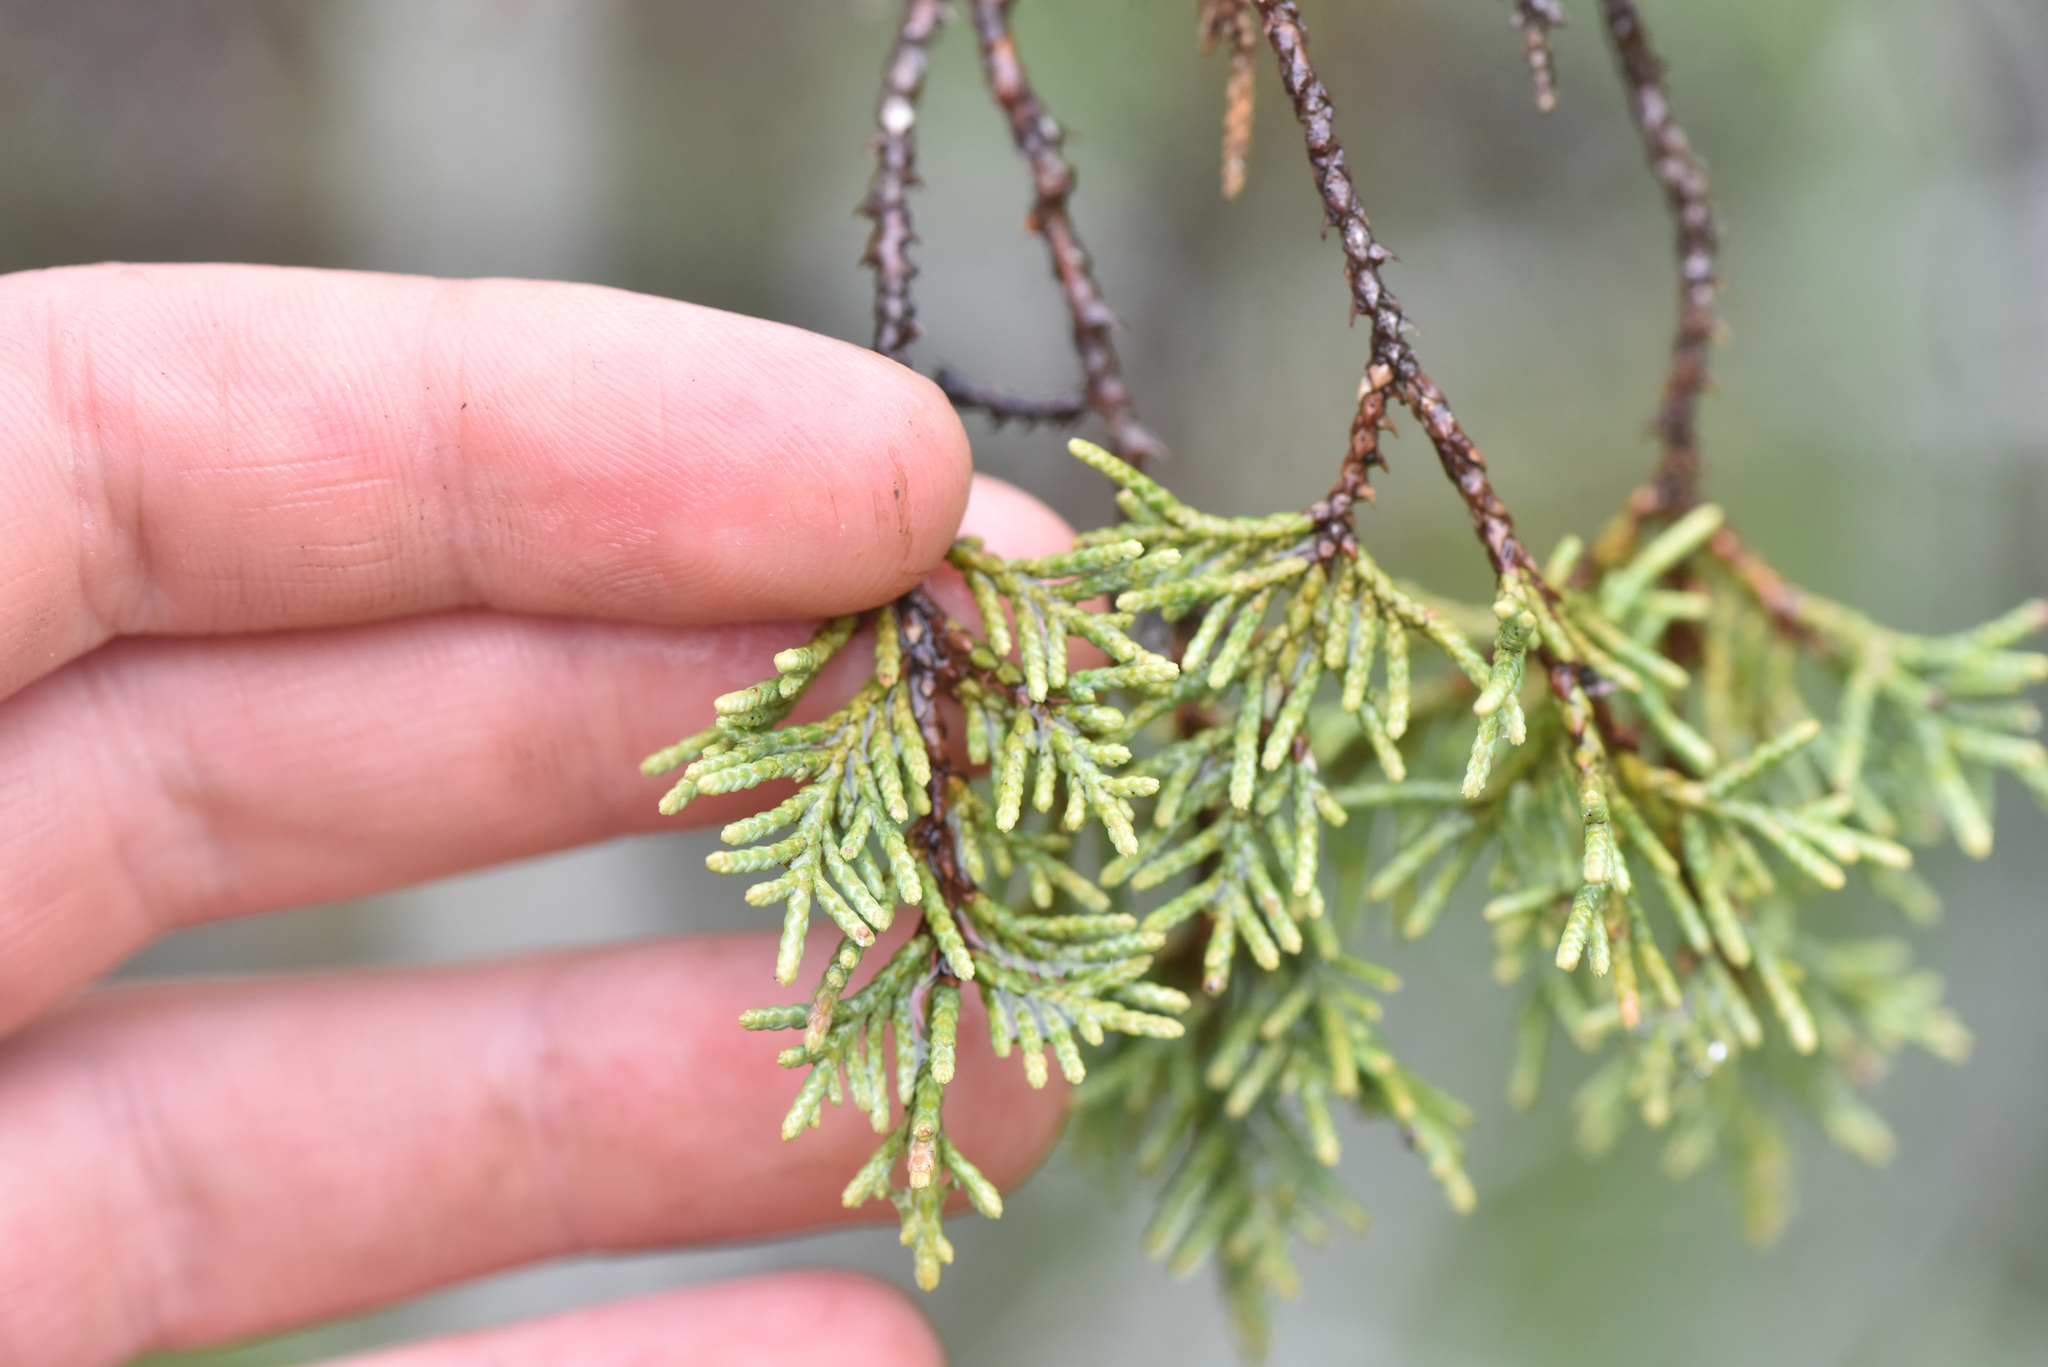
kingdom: Plantae
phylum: Tracheophyta
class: Pinopsida
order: Pinales
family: Cupressaceae
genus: Juniperus
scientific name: Juniperus scopulorum
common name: Rocky mountain juniper
